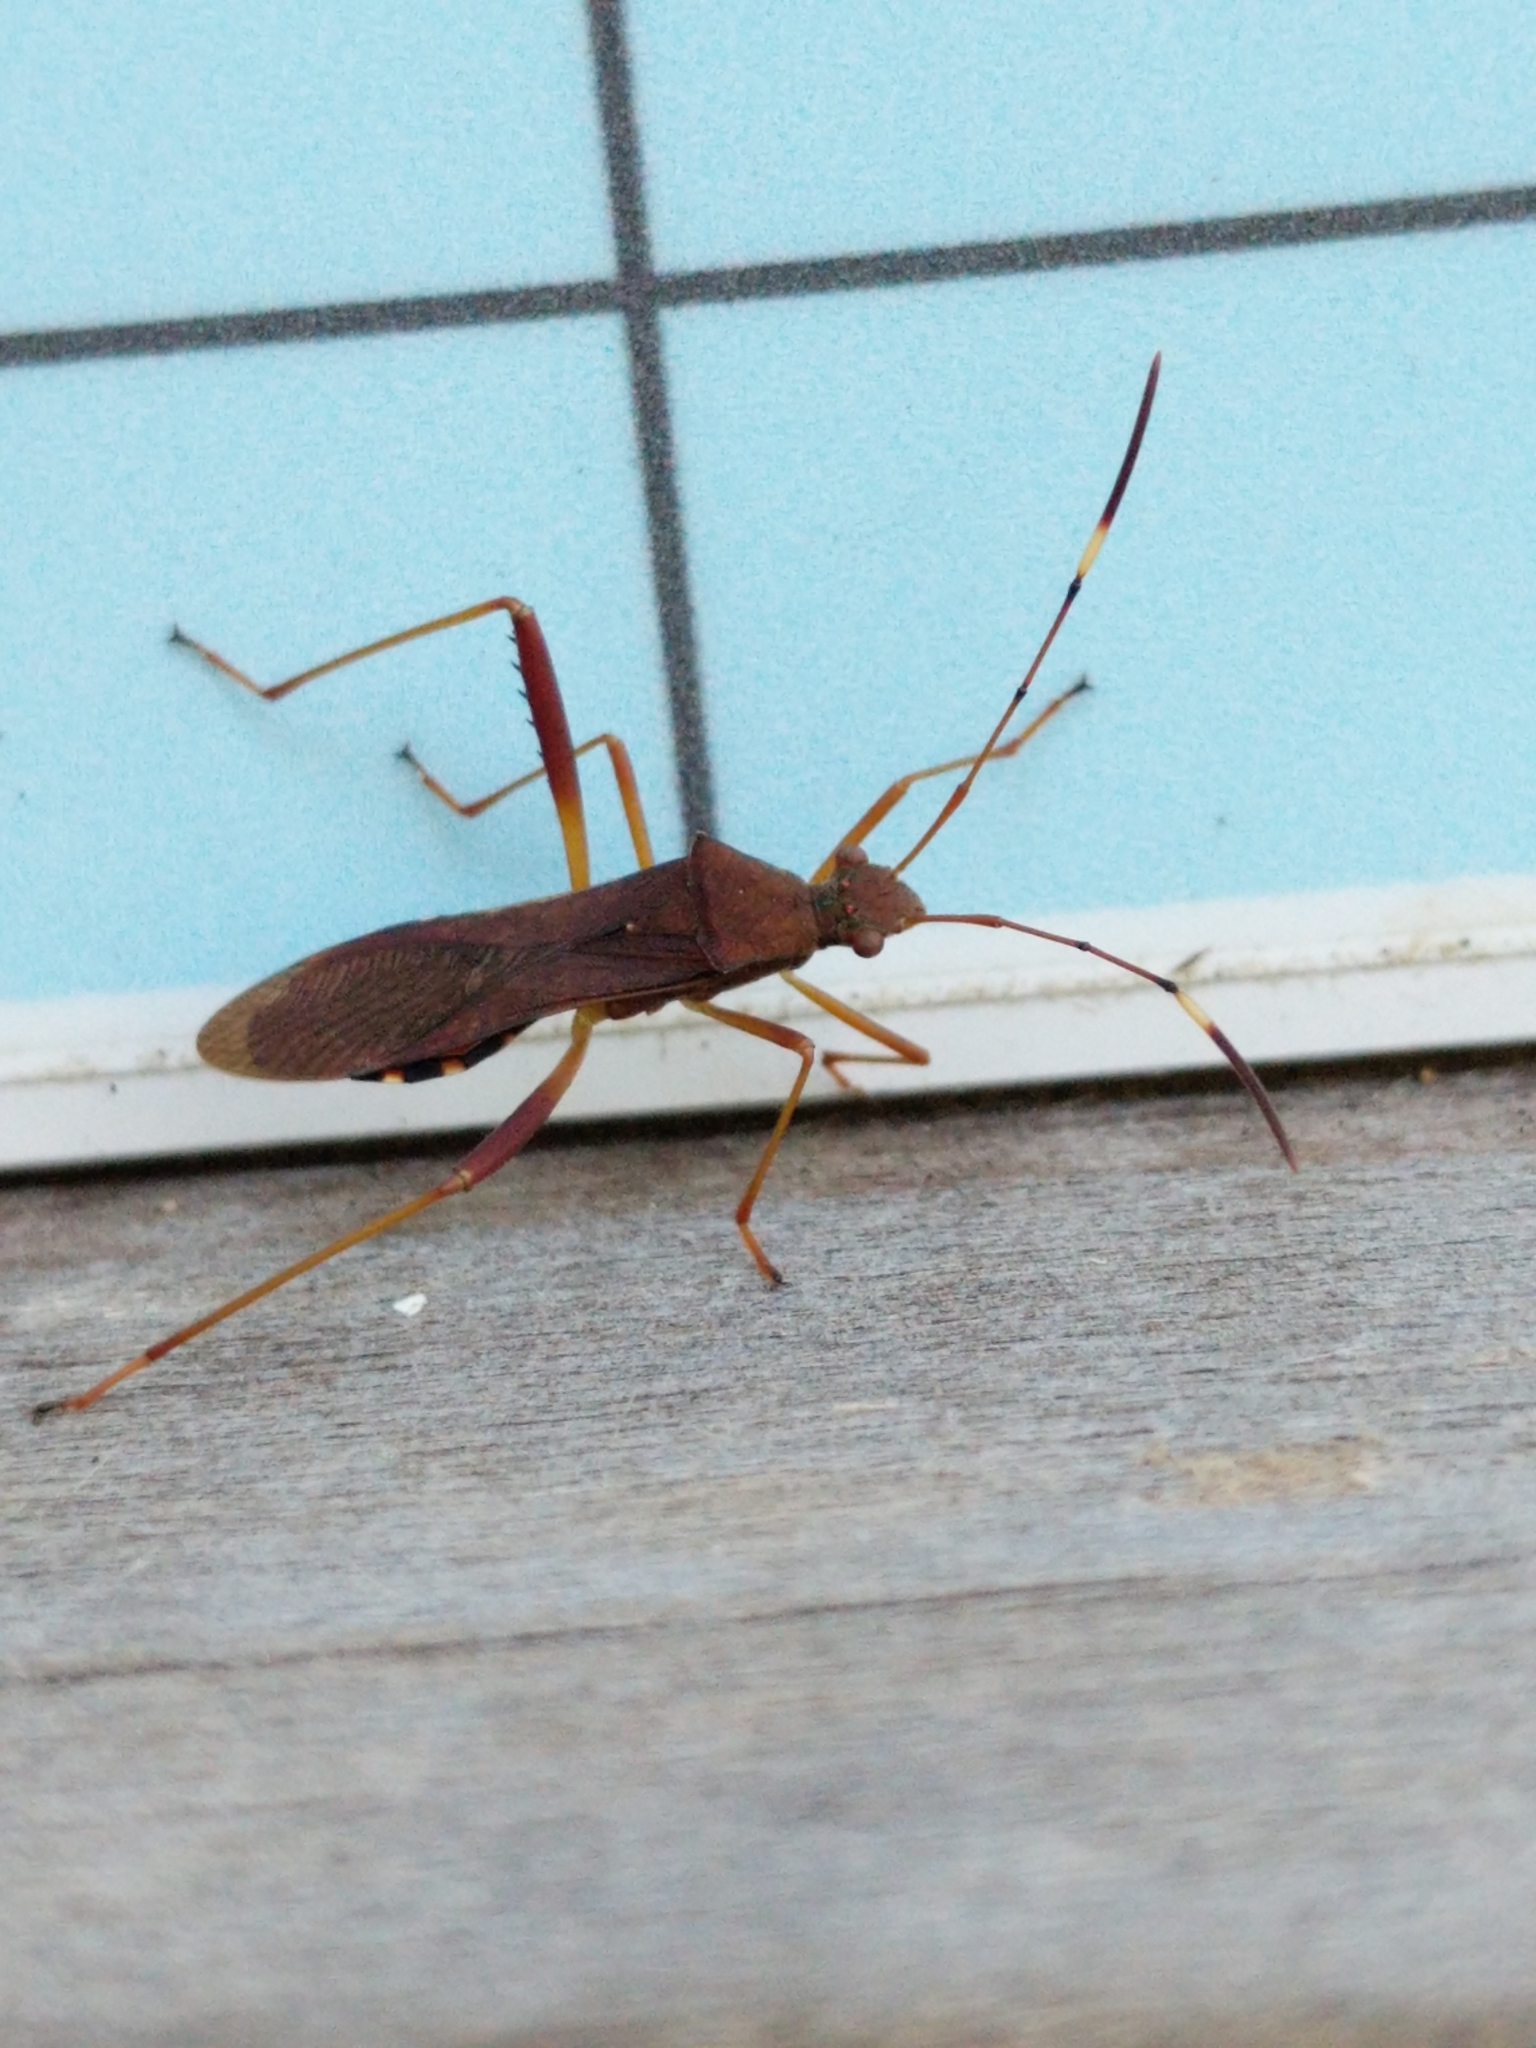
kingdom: Animalia
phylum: Arthropoda
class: Insecta
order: Hemiptera
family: Alydidae
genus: Megalotomus
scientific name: Megalotomus quinquespinosus
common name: Lupine bug
